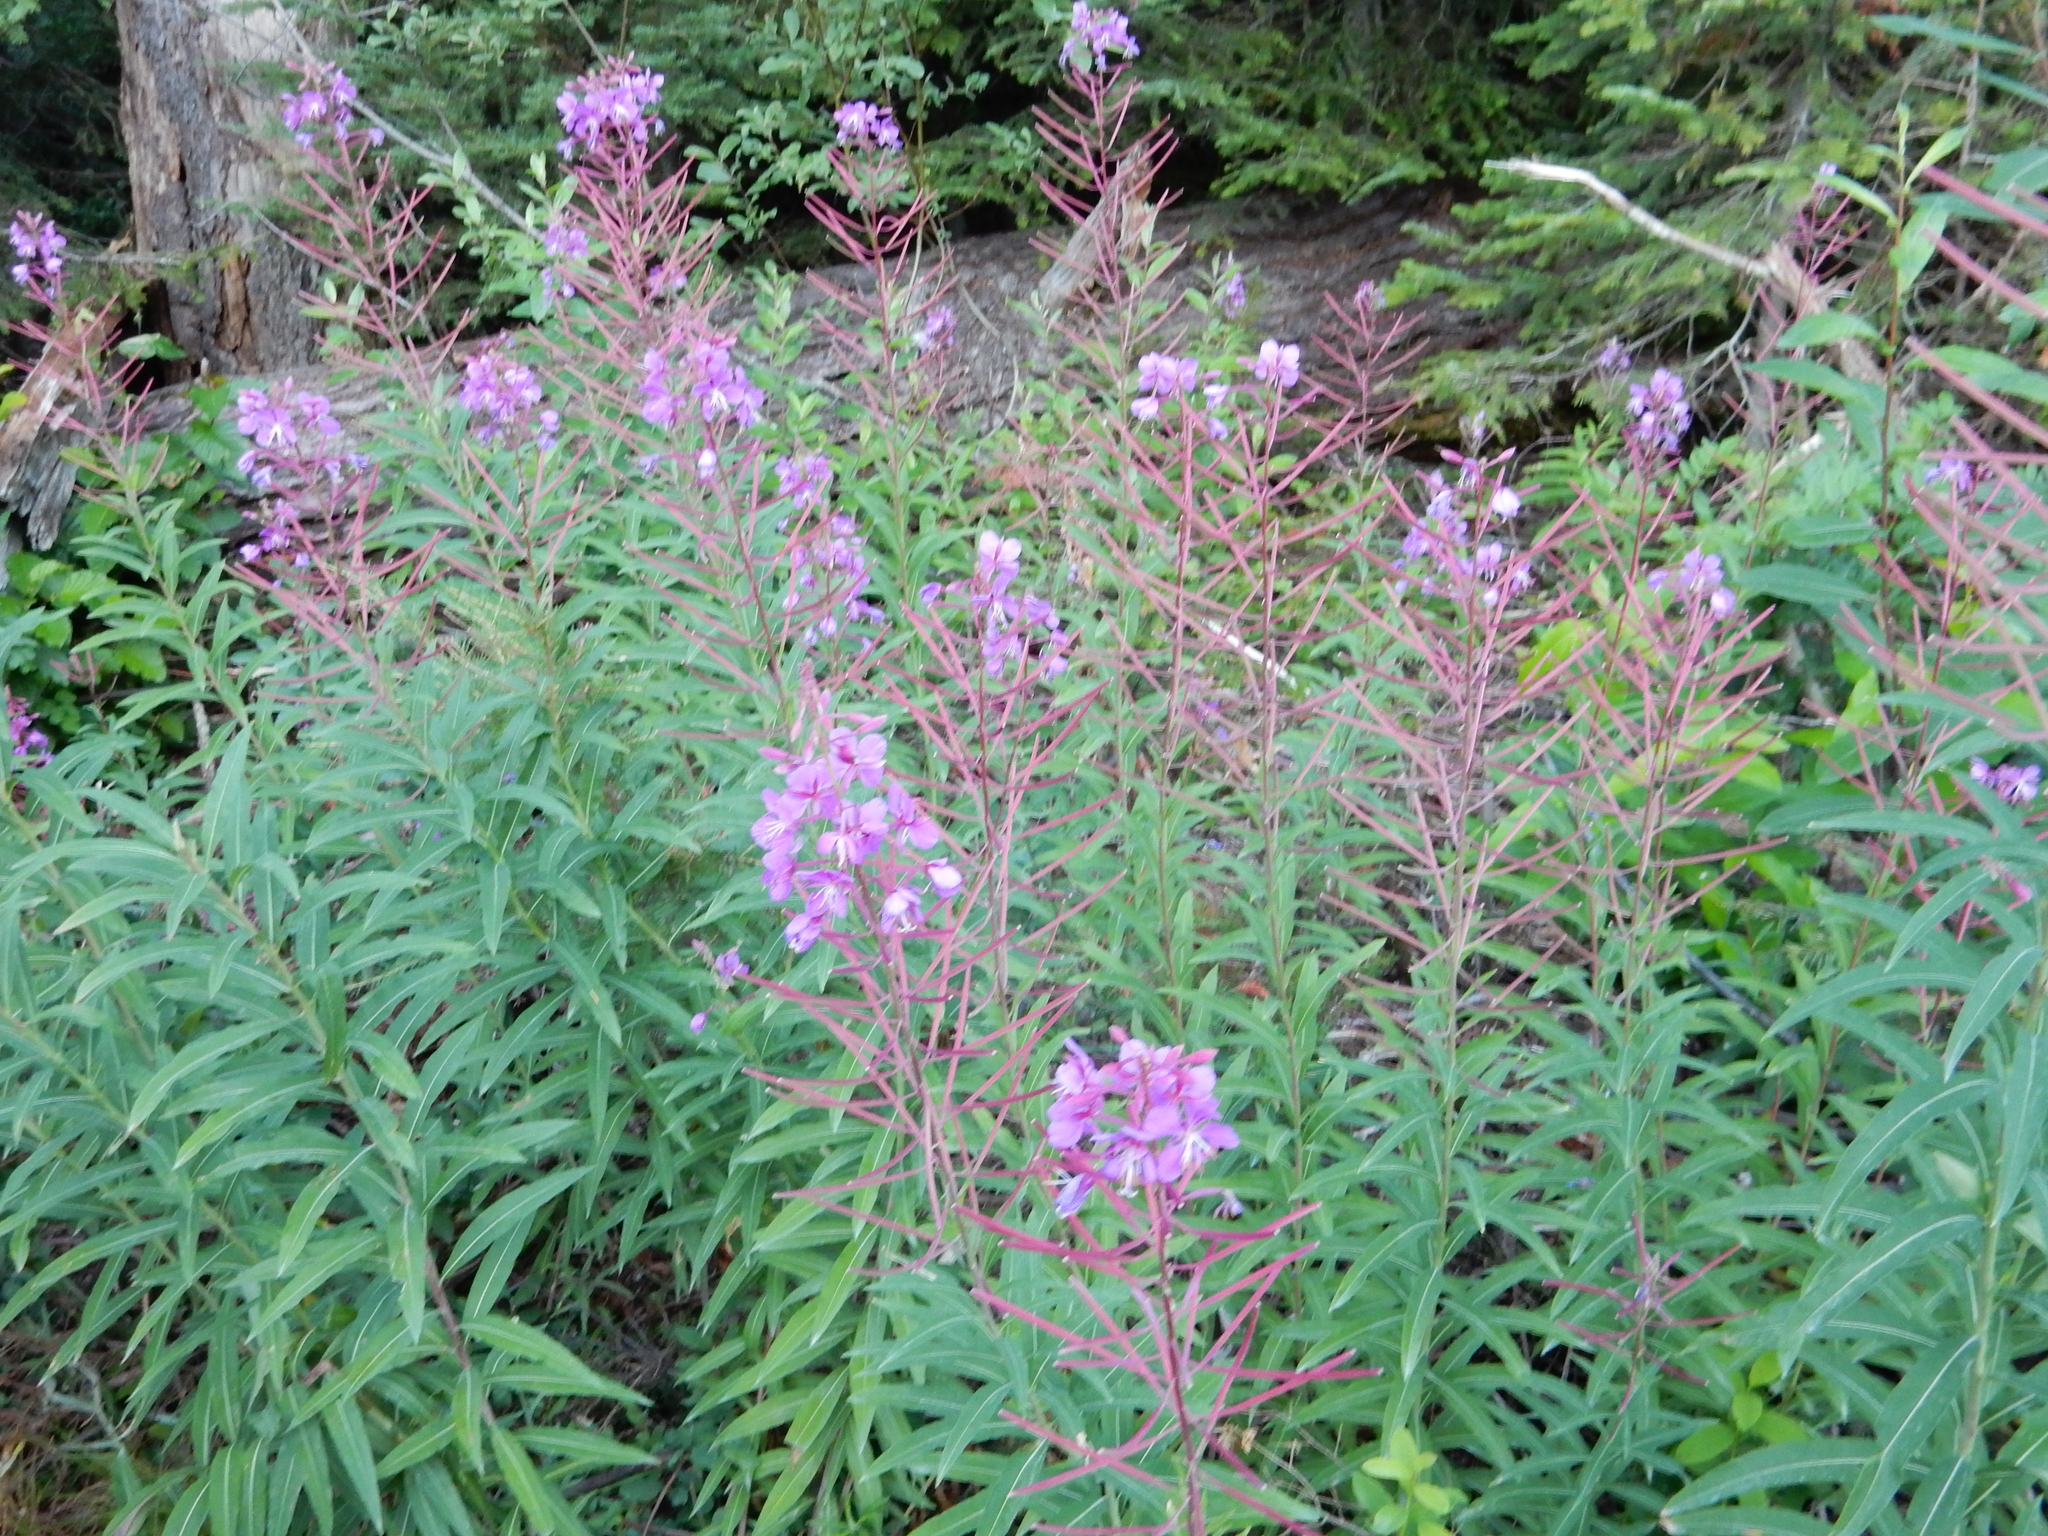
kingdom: Plantae
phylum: Tracheophyta
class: Magnoliopsida
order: Myrtales
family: Onagraceae
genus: Chamaenerion
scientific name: Chamaenerion angustifolium
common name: Fireweed
